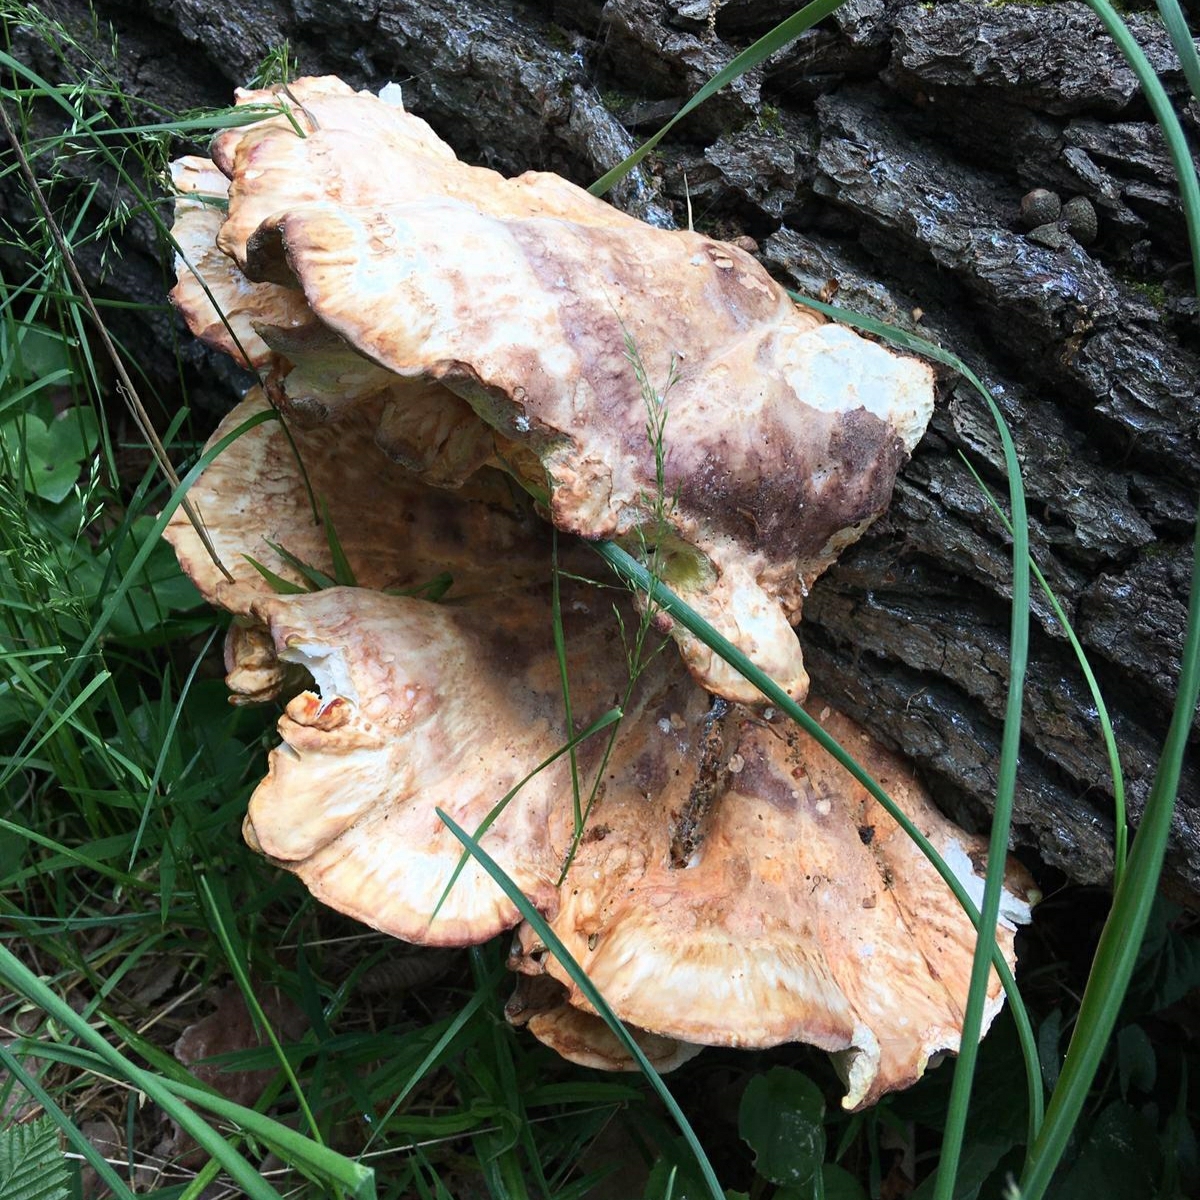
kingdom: Fungi
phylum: Basidiomycota
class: Agaricomycetes
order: Polyporales
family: Laetiporaceae
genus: Laetiporus
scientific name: Laetiporus sulphureus
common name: Chicken of the woods
